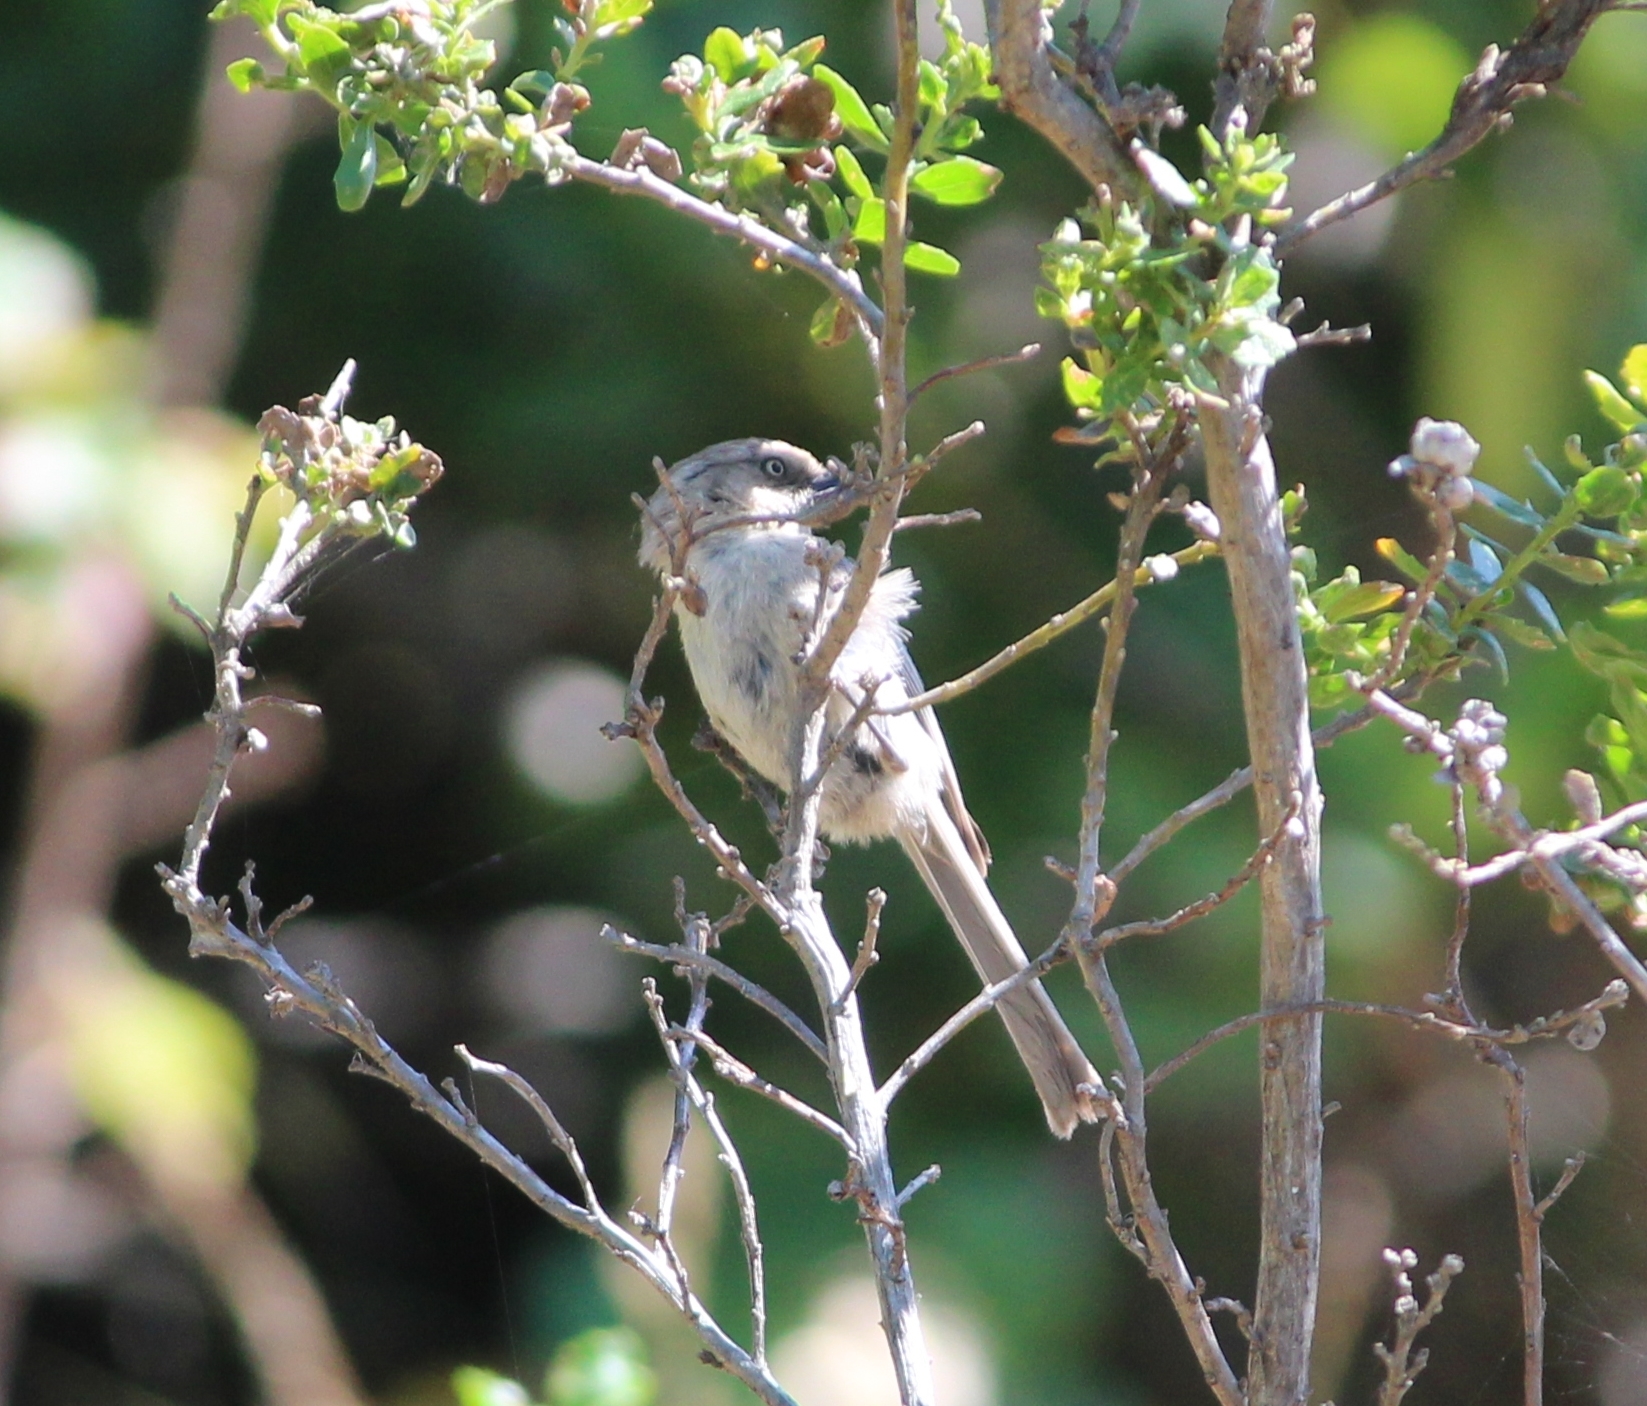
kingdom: Animalia
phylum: Chordata
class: Aves
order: Passeriformes
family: Aegithalidae
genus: Psaltriparus
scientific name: Psaltriparus minimus
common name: American bushtit
